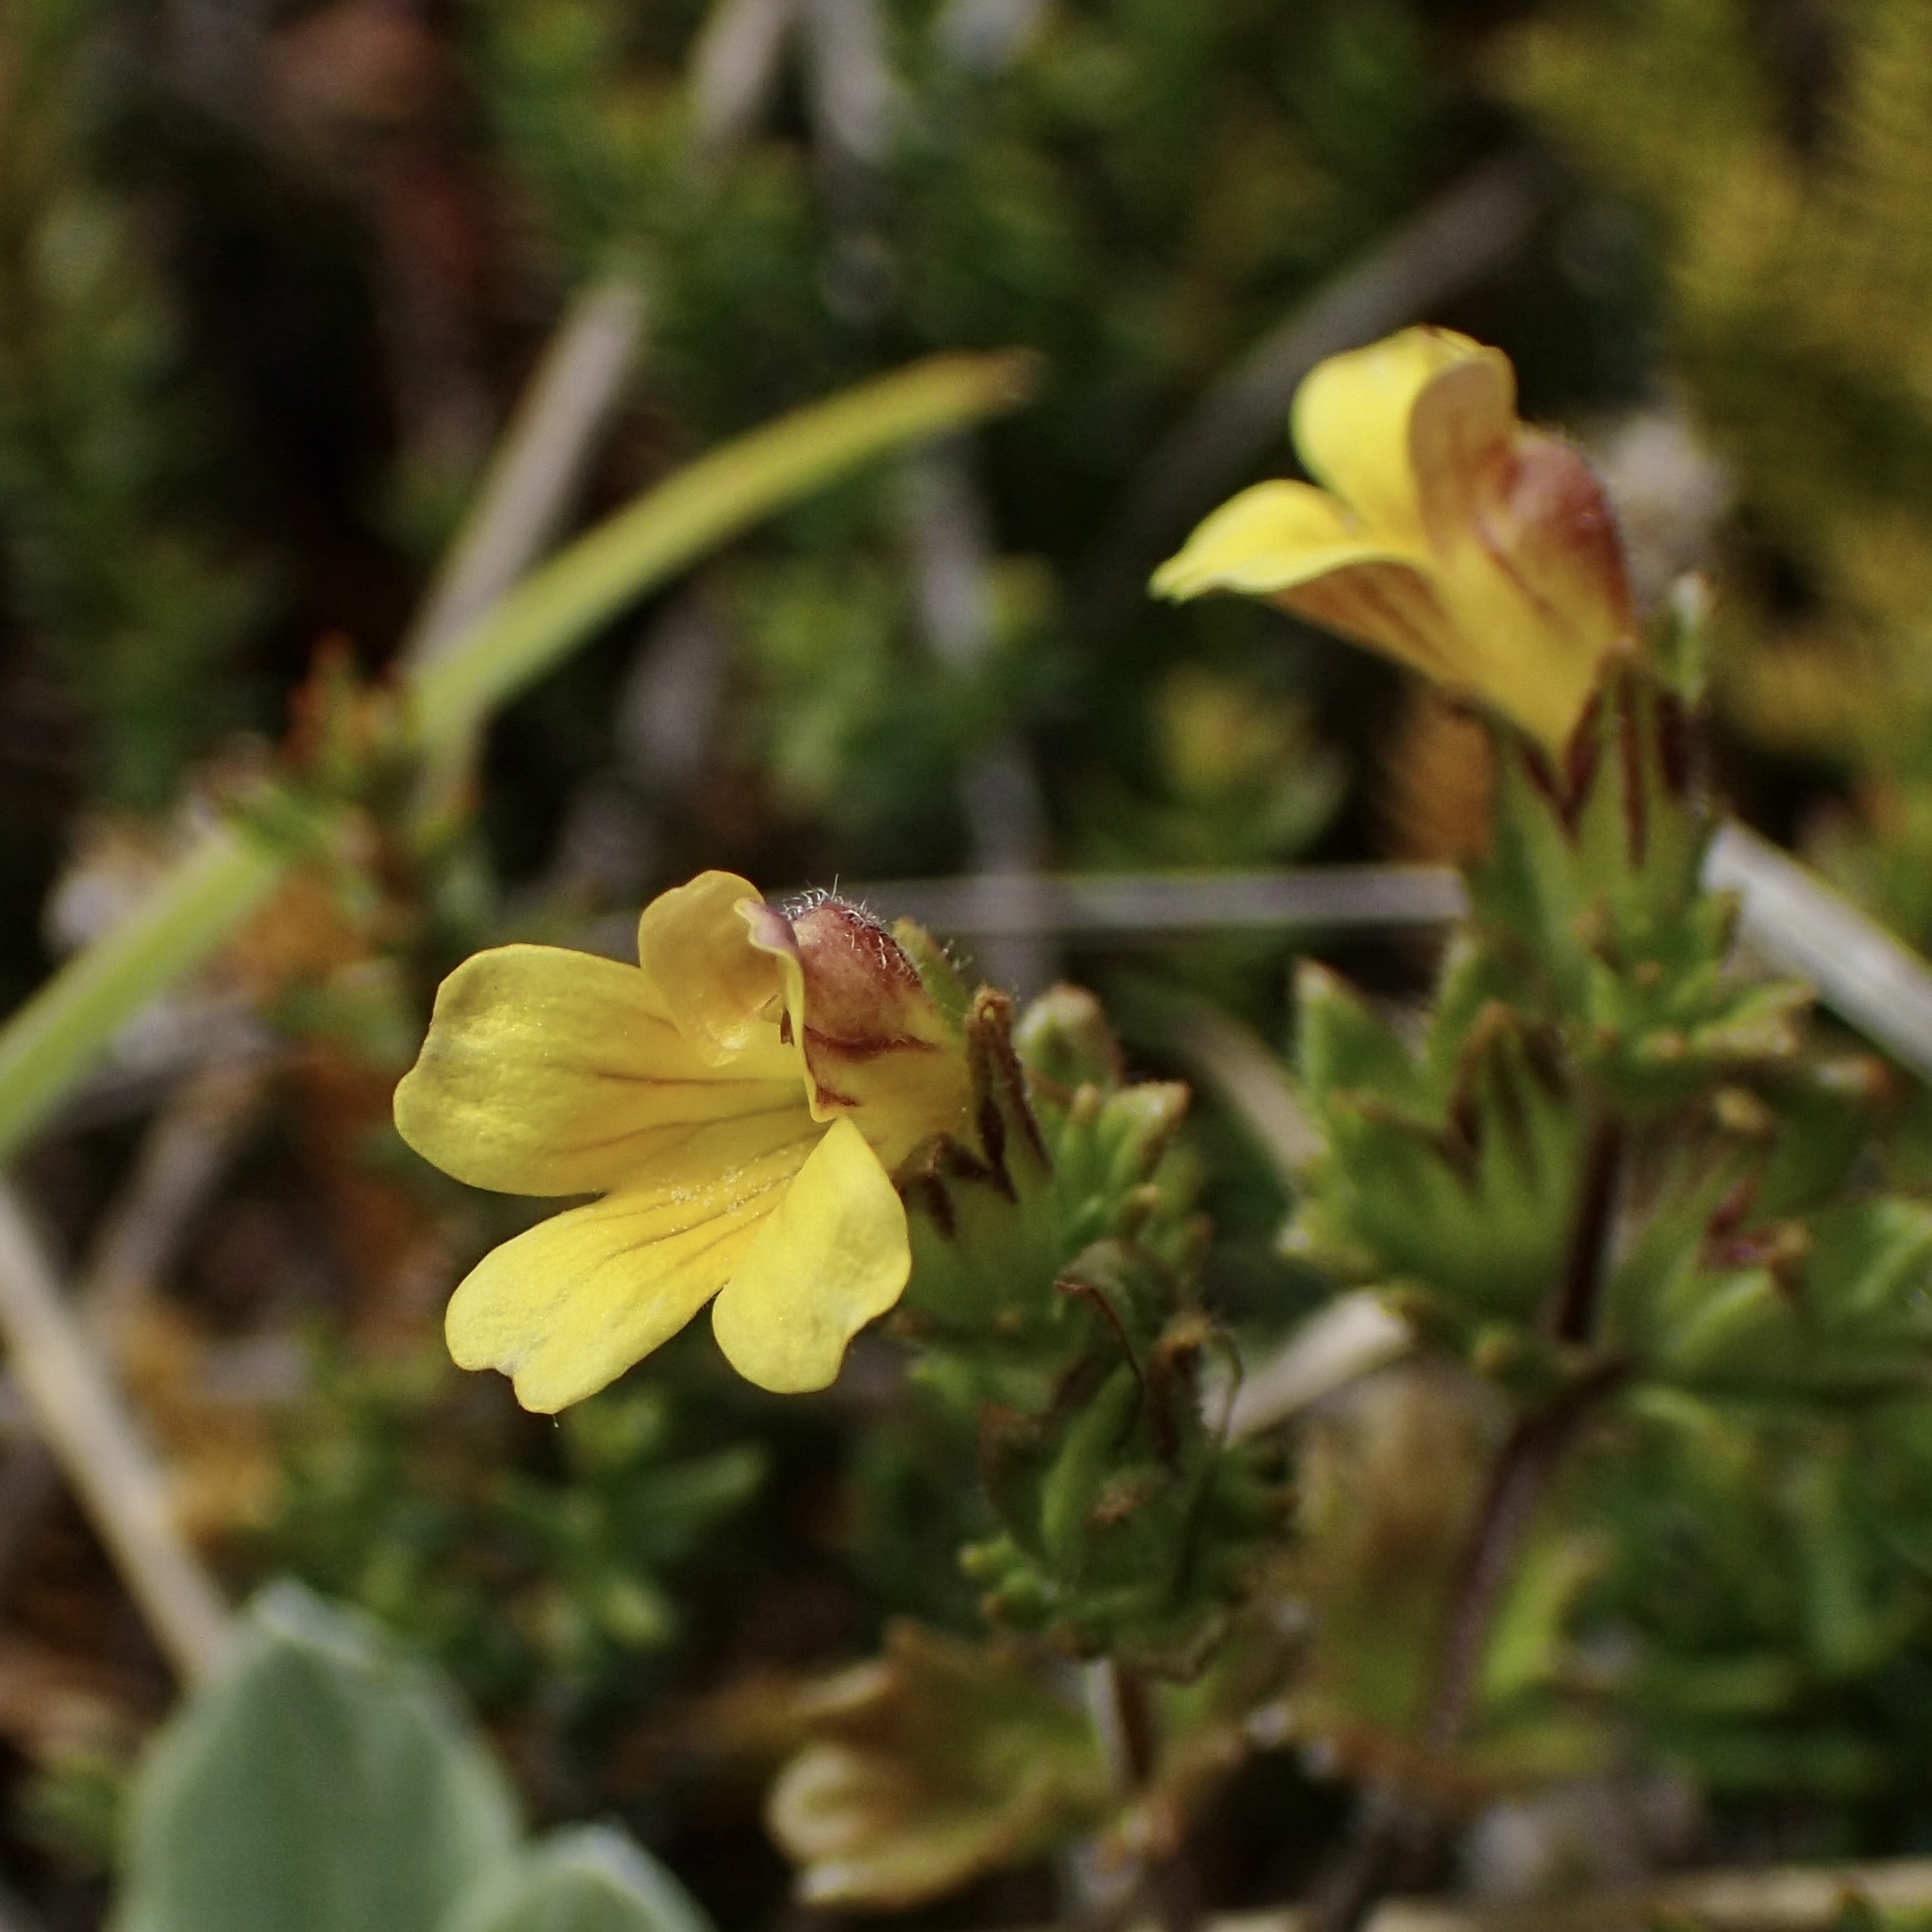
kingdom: Plantae
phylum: Tracheophyta
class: Magnoliopsida
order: Lamiales
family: Orobanchaceae
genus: Euphrasia
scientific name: Euphrasia cockayneana
